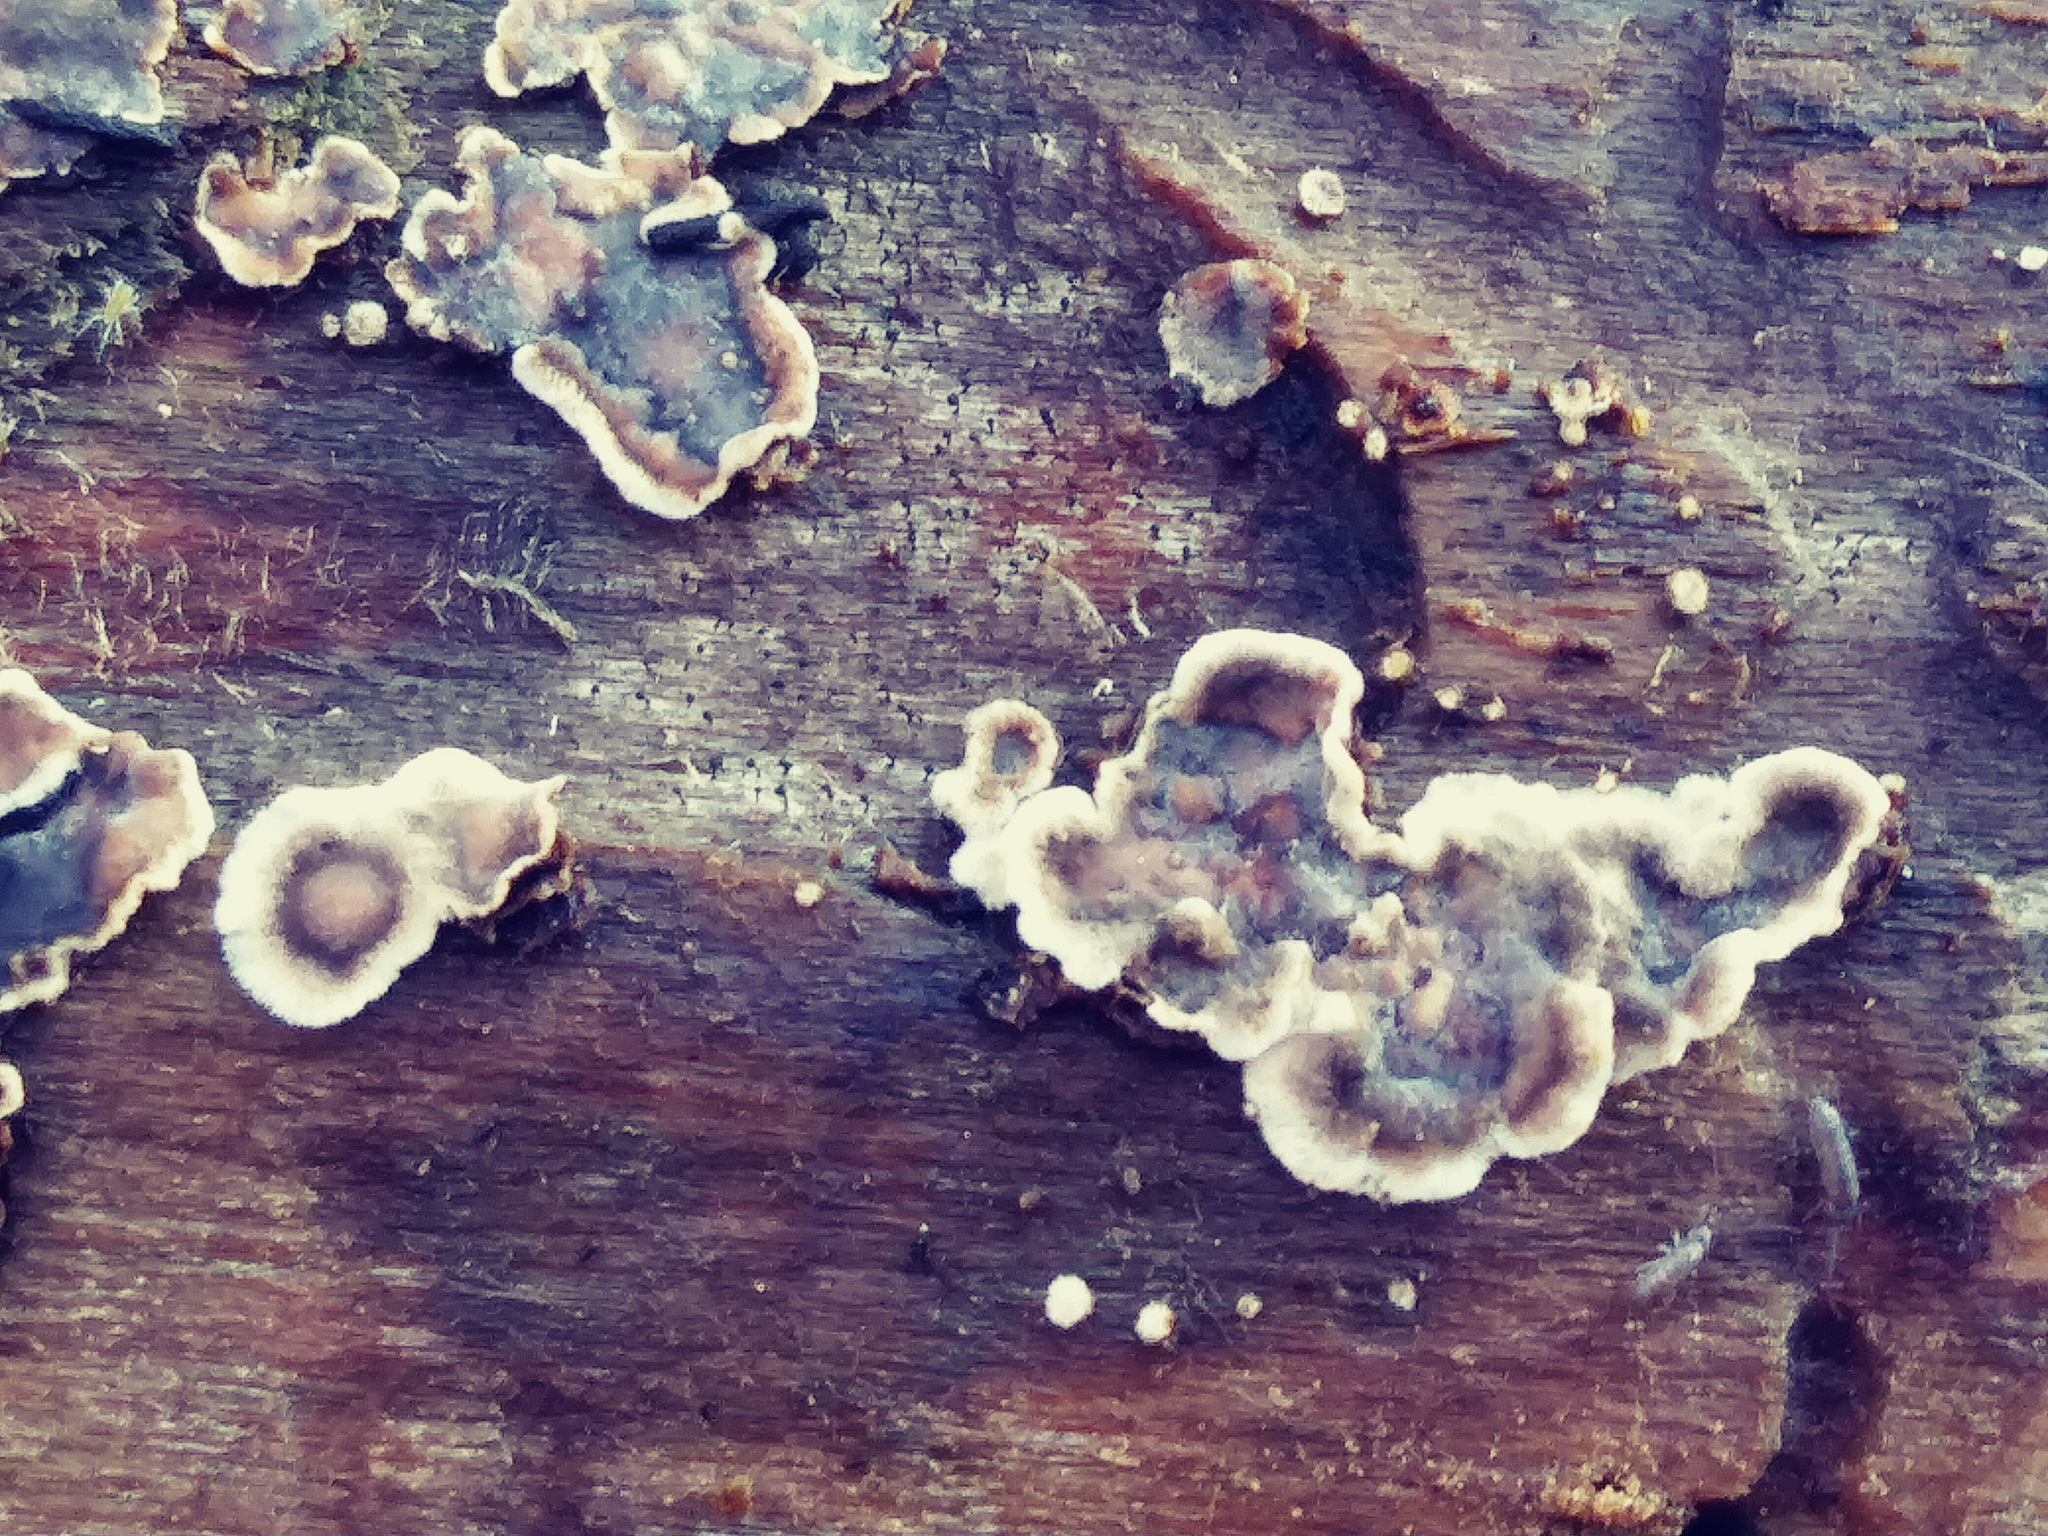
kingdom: Fungi
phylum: Basidiomycota
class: Agaricomycetes
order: Russulales
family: Peniophoraceae
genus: Peniophora
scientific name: Peniophora albobadia
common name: Giraffe spots
